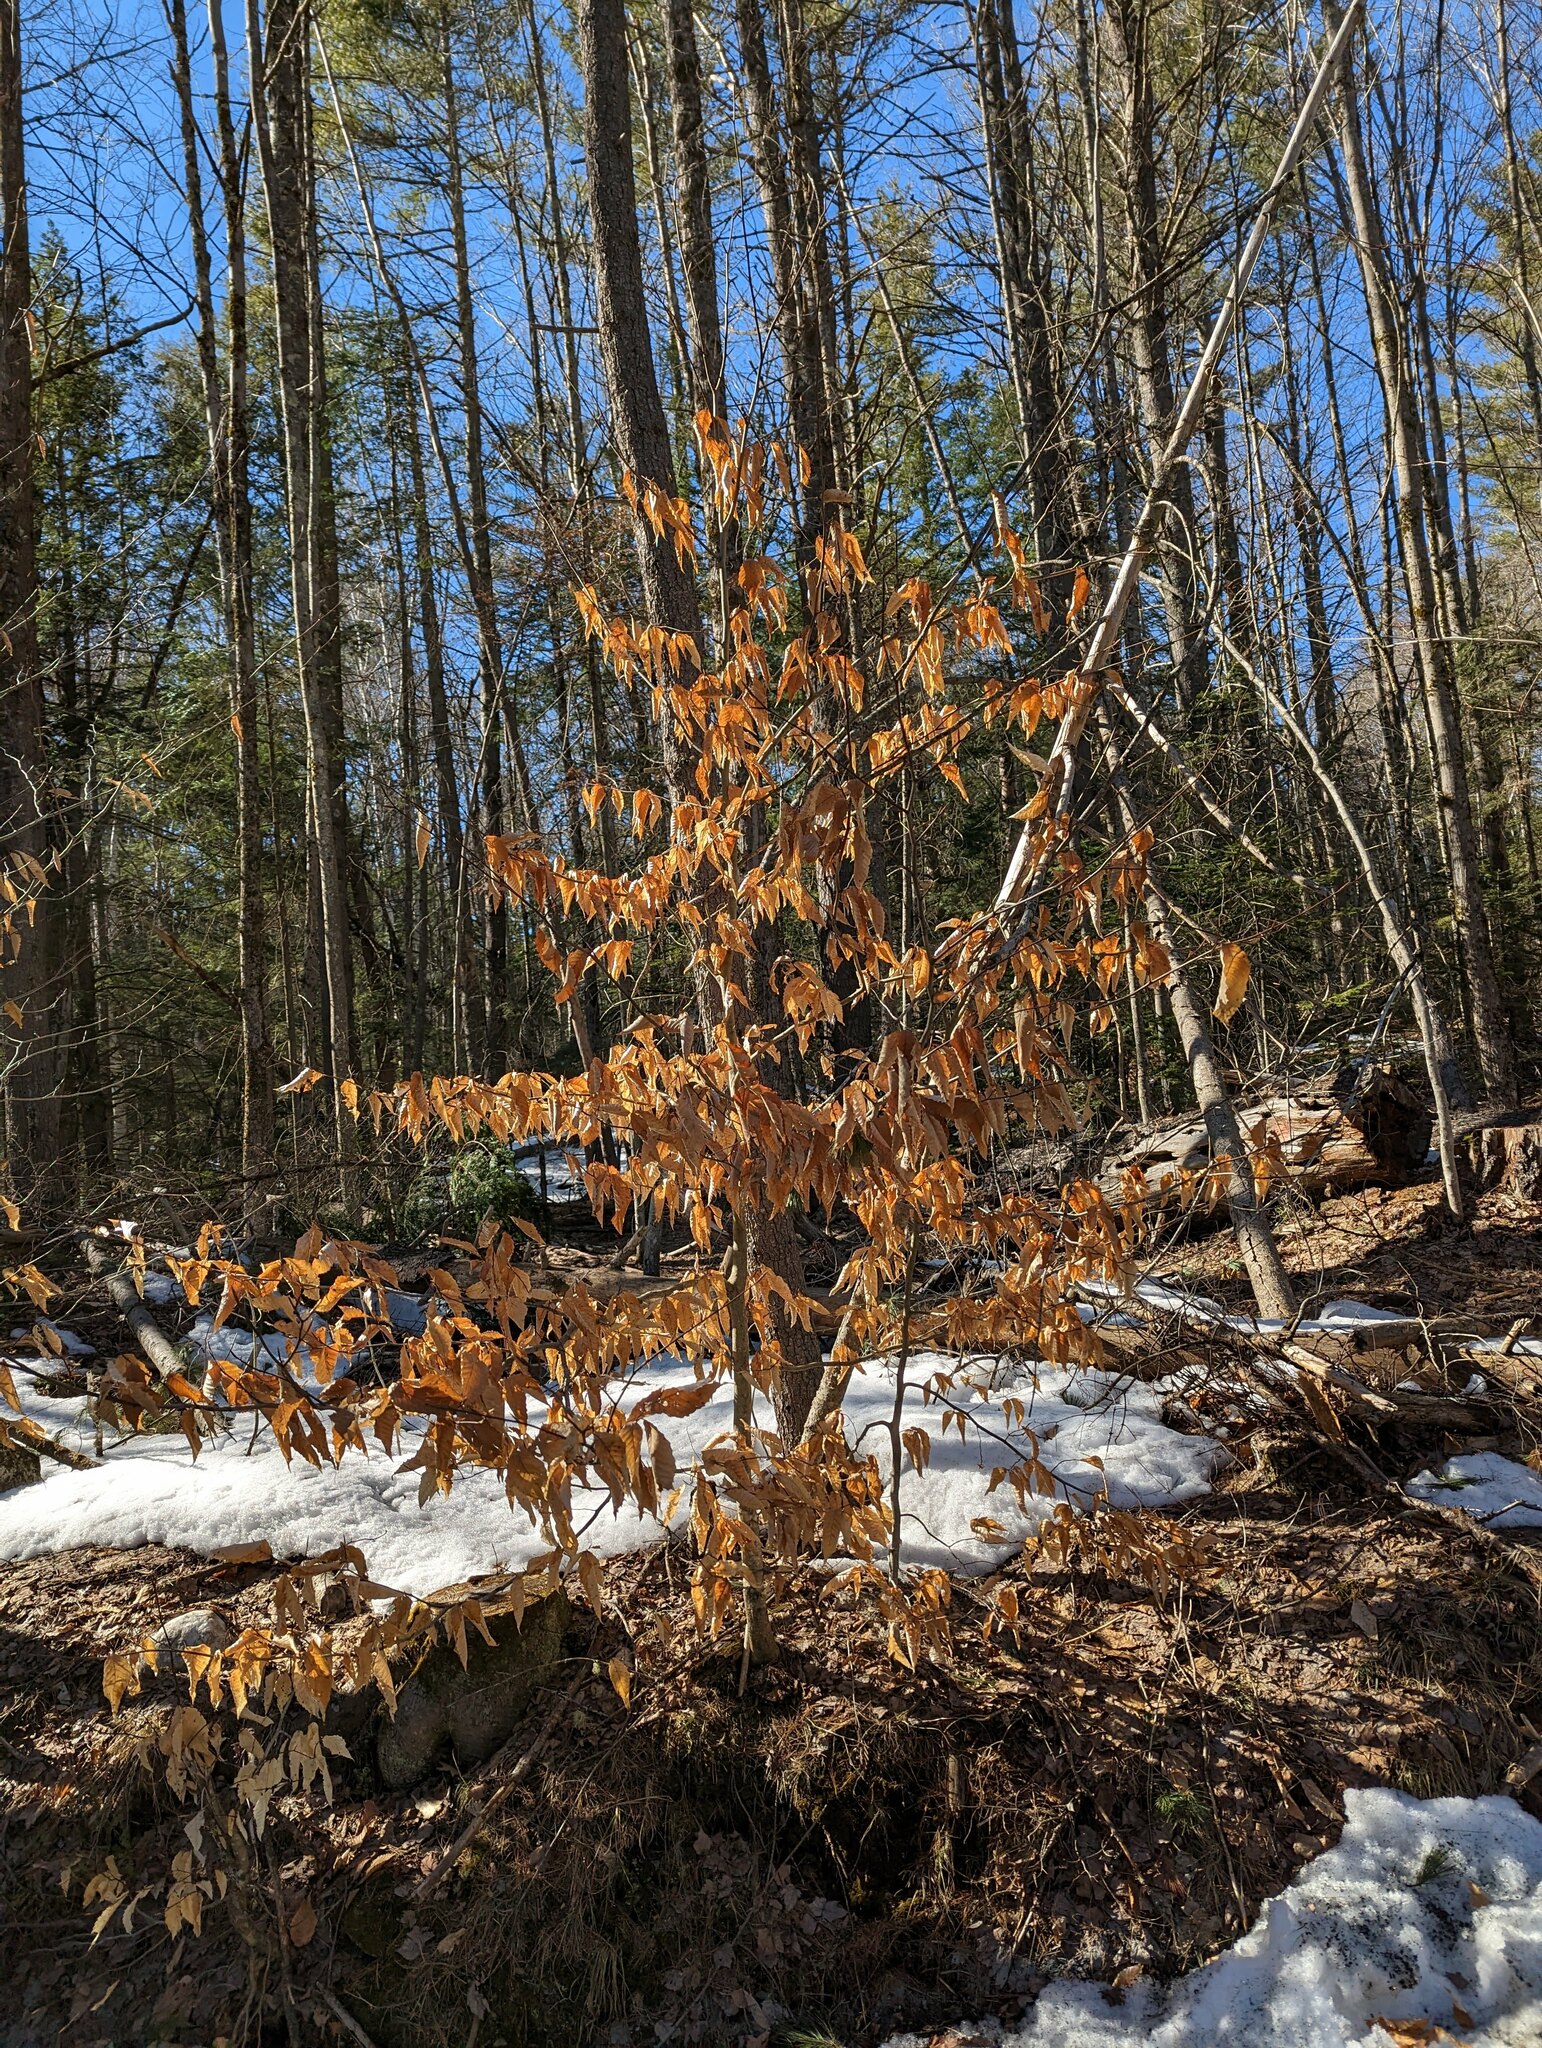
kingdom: Plantae
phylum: Tracheophyta
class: Magnoliopsida
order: Fagales
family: Fagaceae
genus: Fagus
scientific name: Fagus grandifolia
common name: American beech
